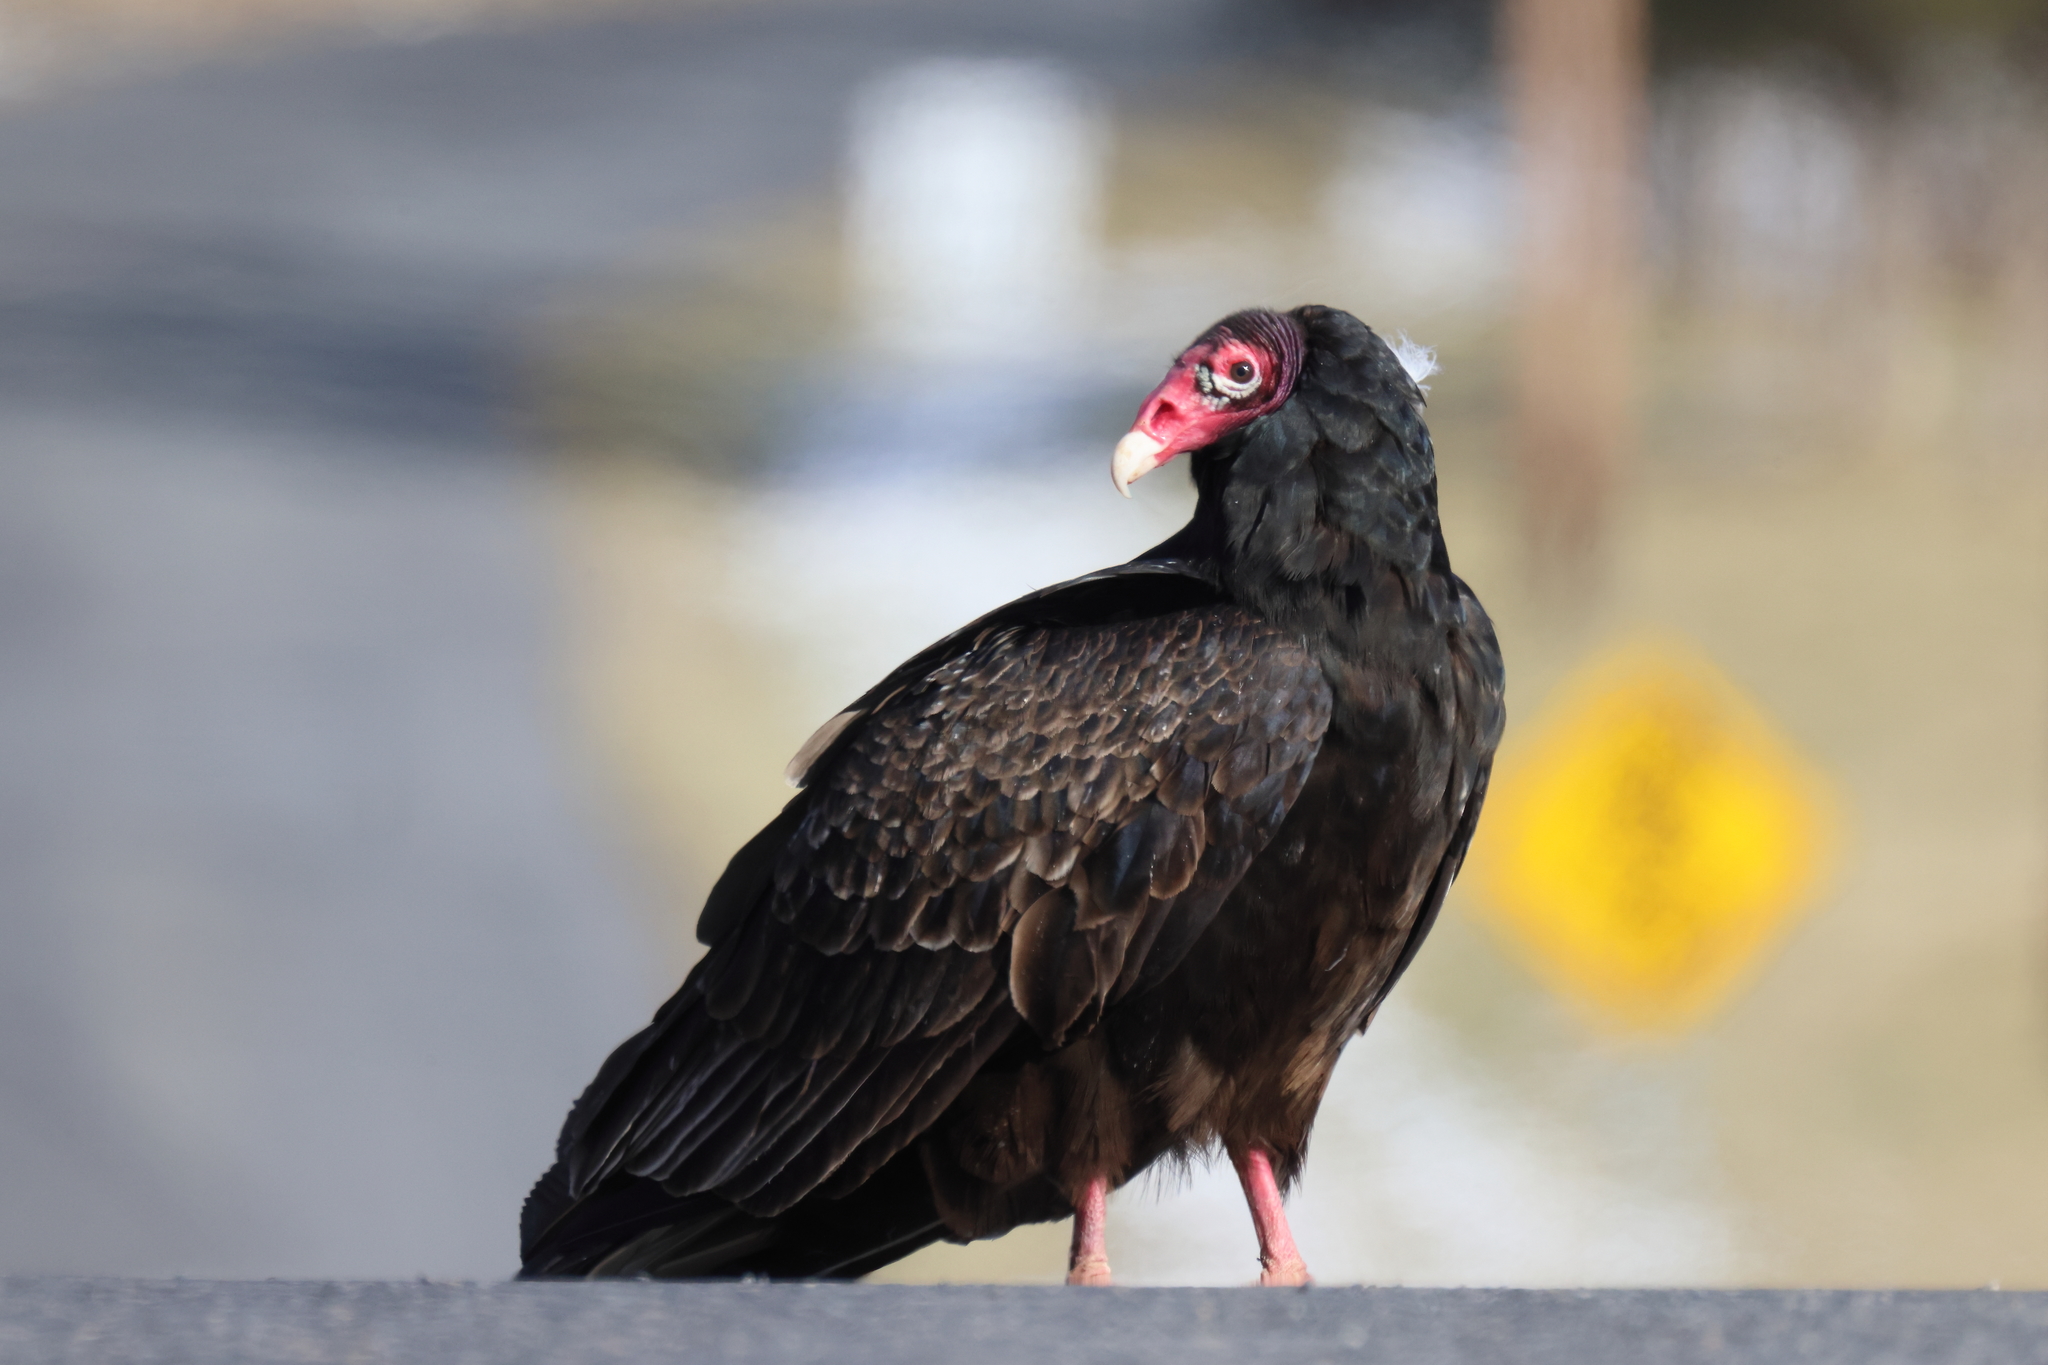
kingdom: Animalia
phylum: Chordata
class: Aves
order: Accipitriformes
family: Cathartidae
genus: Cathartes
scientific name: Cathartes aura
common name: Turkey vulture
